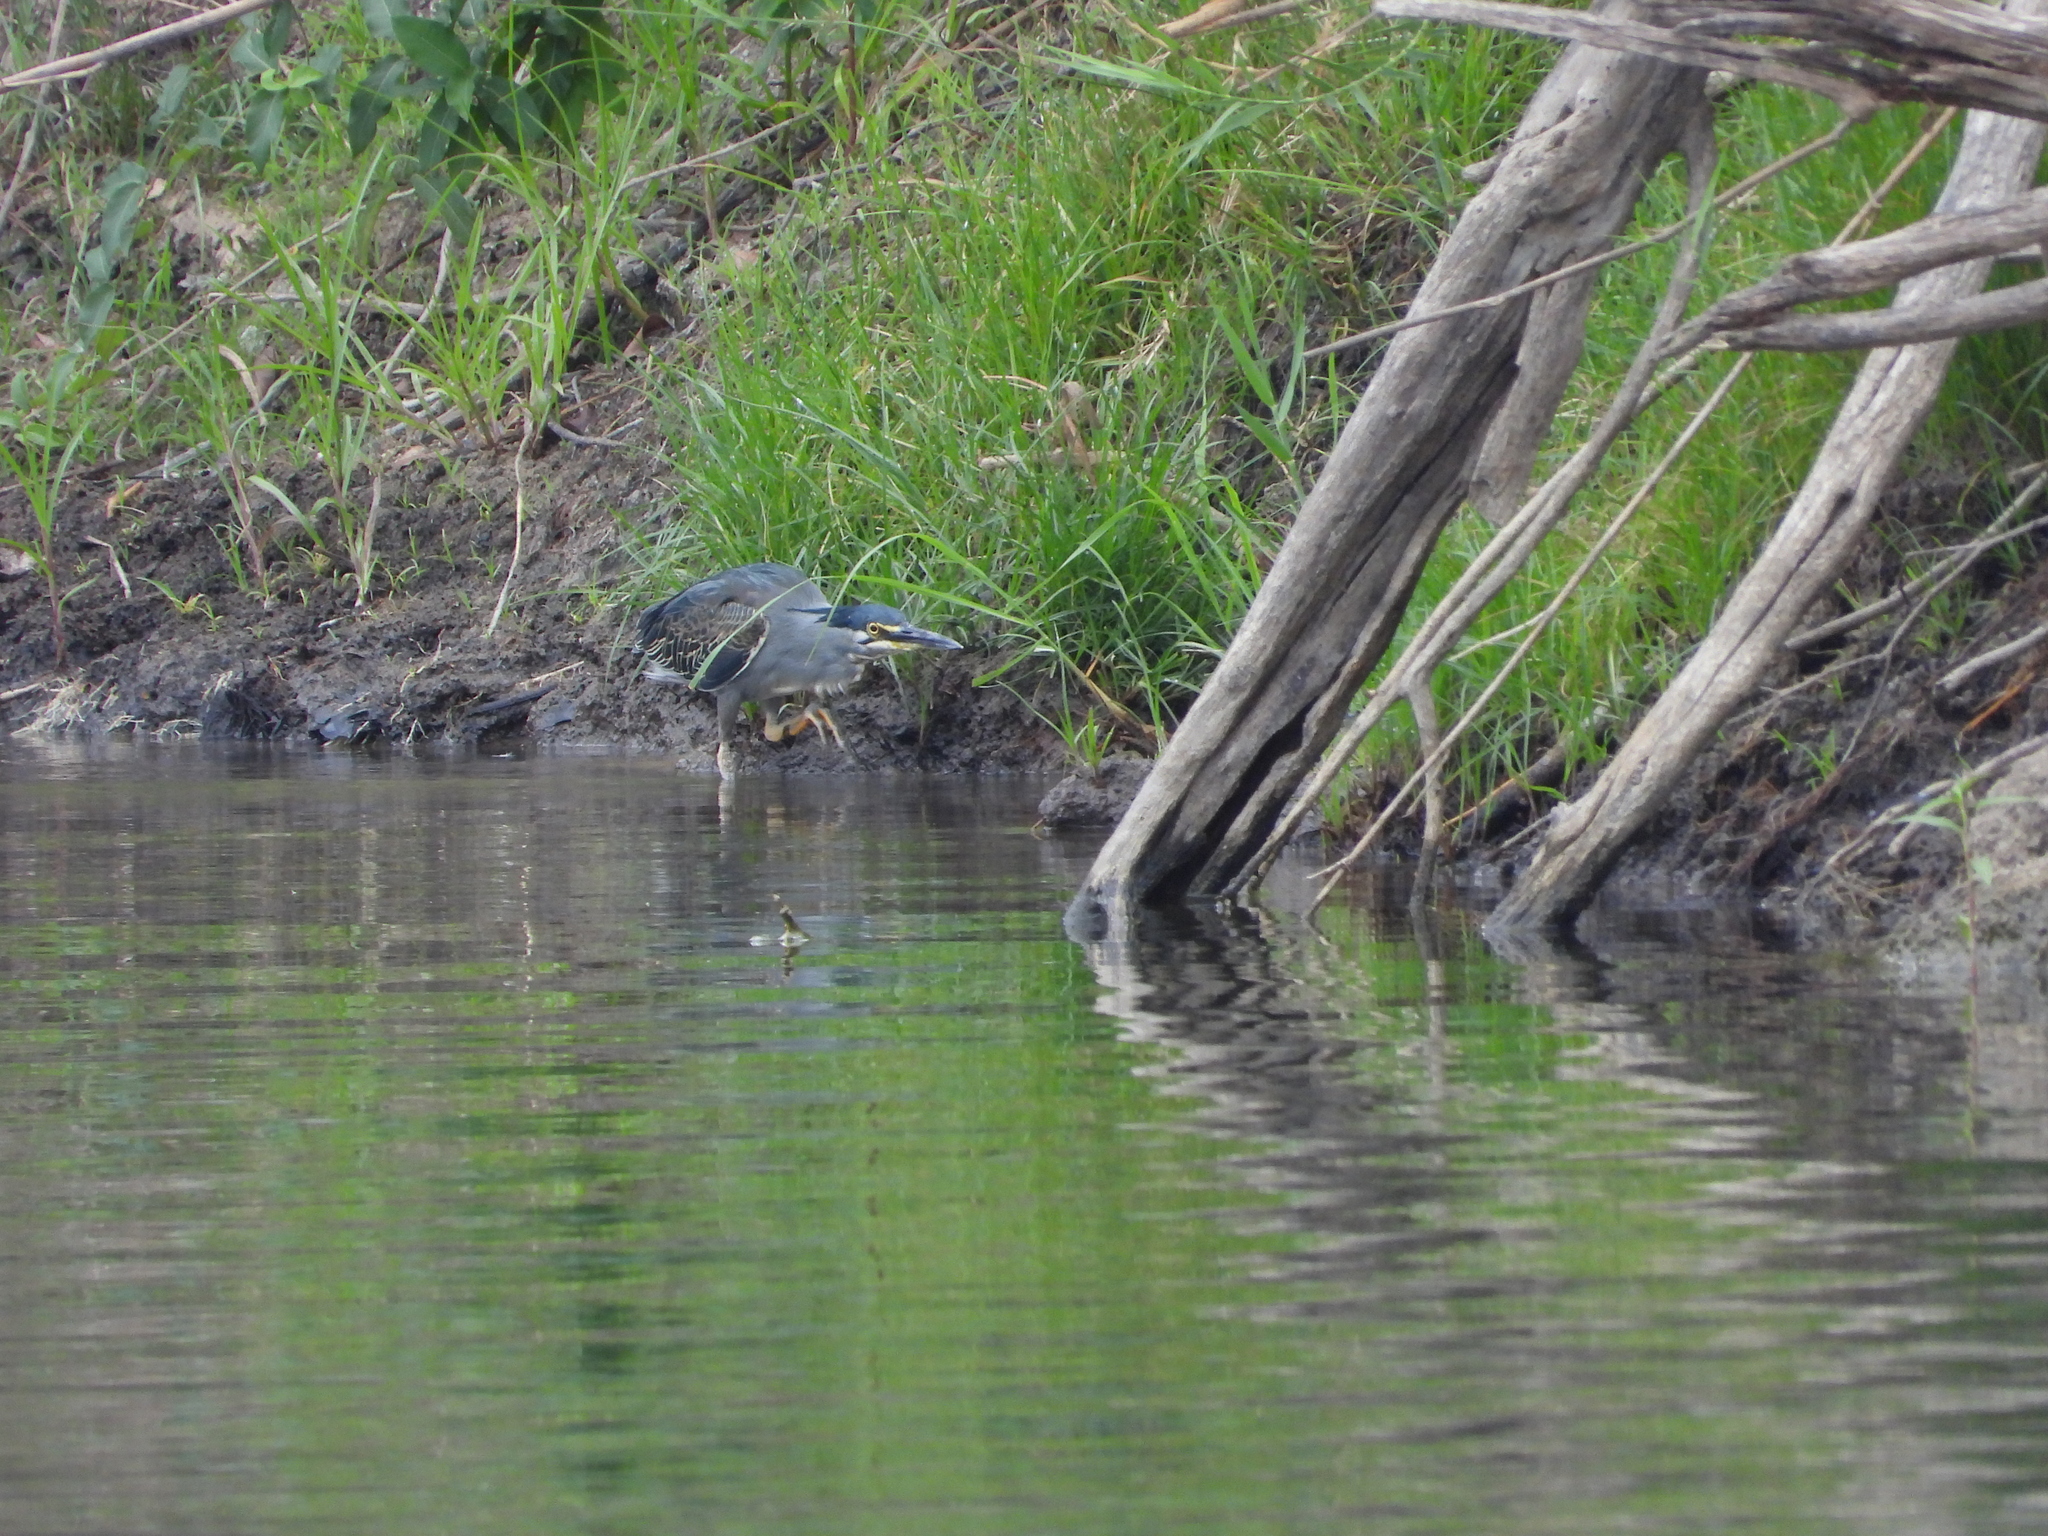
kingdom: Animalia
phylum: Chordata
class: Aves
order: Pelecaniformes
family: Ardeidae
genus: Butorides
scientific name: Butorides striata
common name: Striated heron
